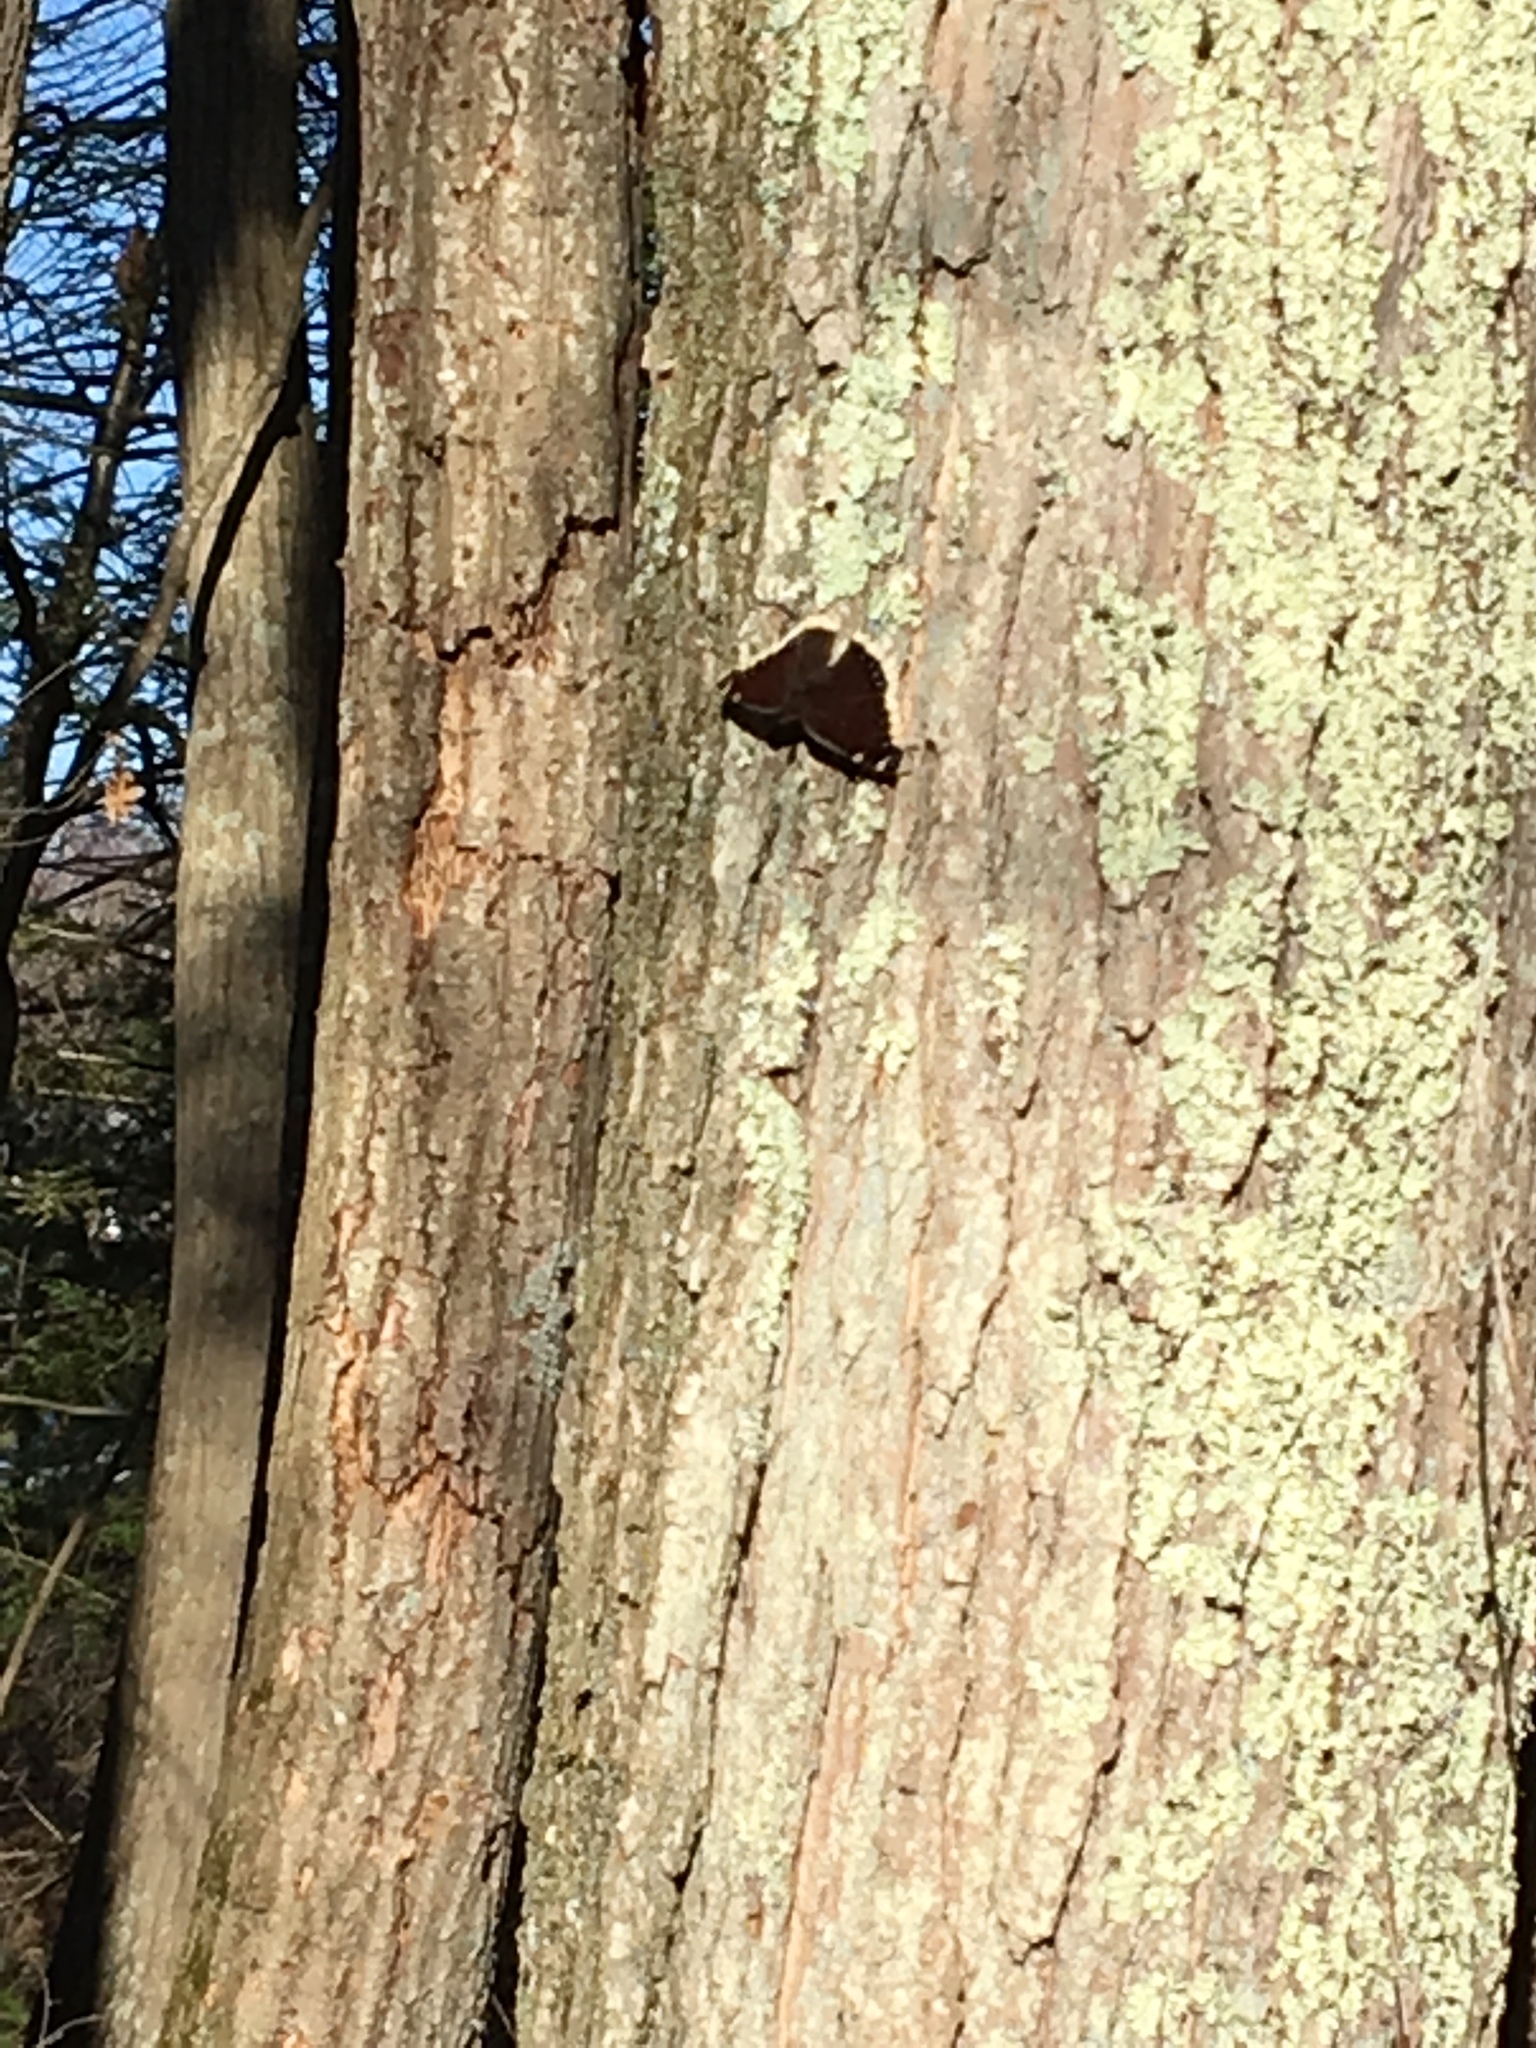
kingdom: Animalia
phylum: Arthropoda
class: Insecta
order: Lepidoptera
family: Nymphalidae
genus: Nymphalis
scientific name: Nymphalis antiopa
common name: Camberwell beauty
